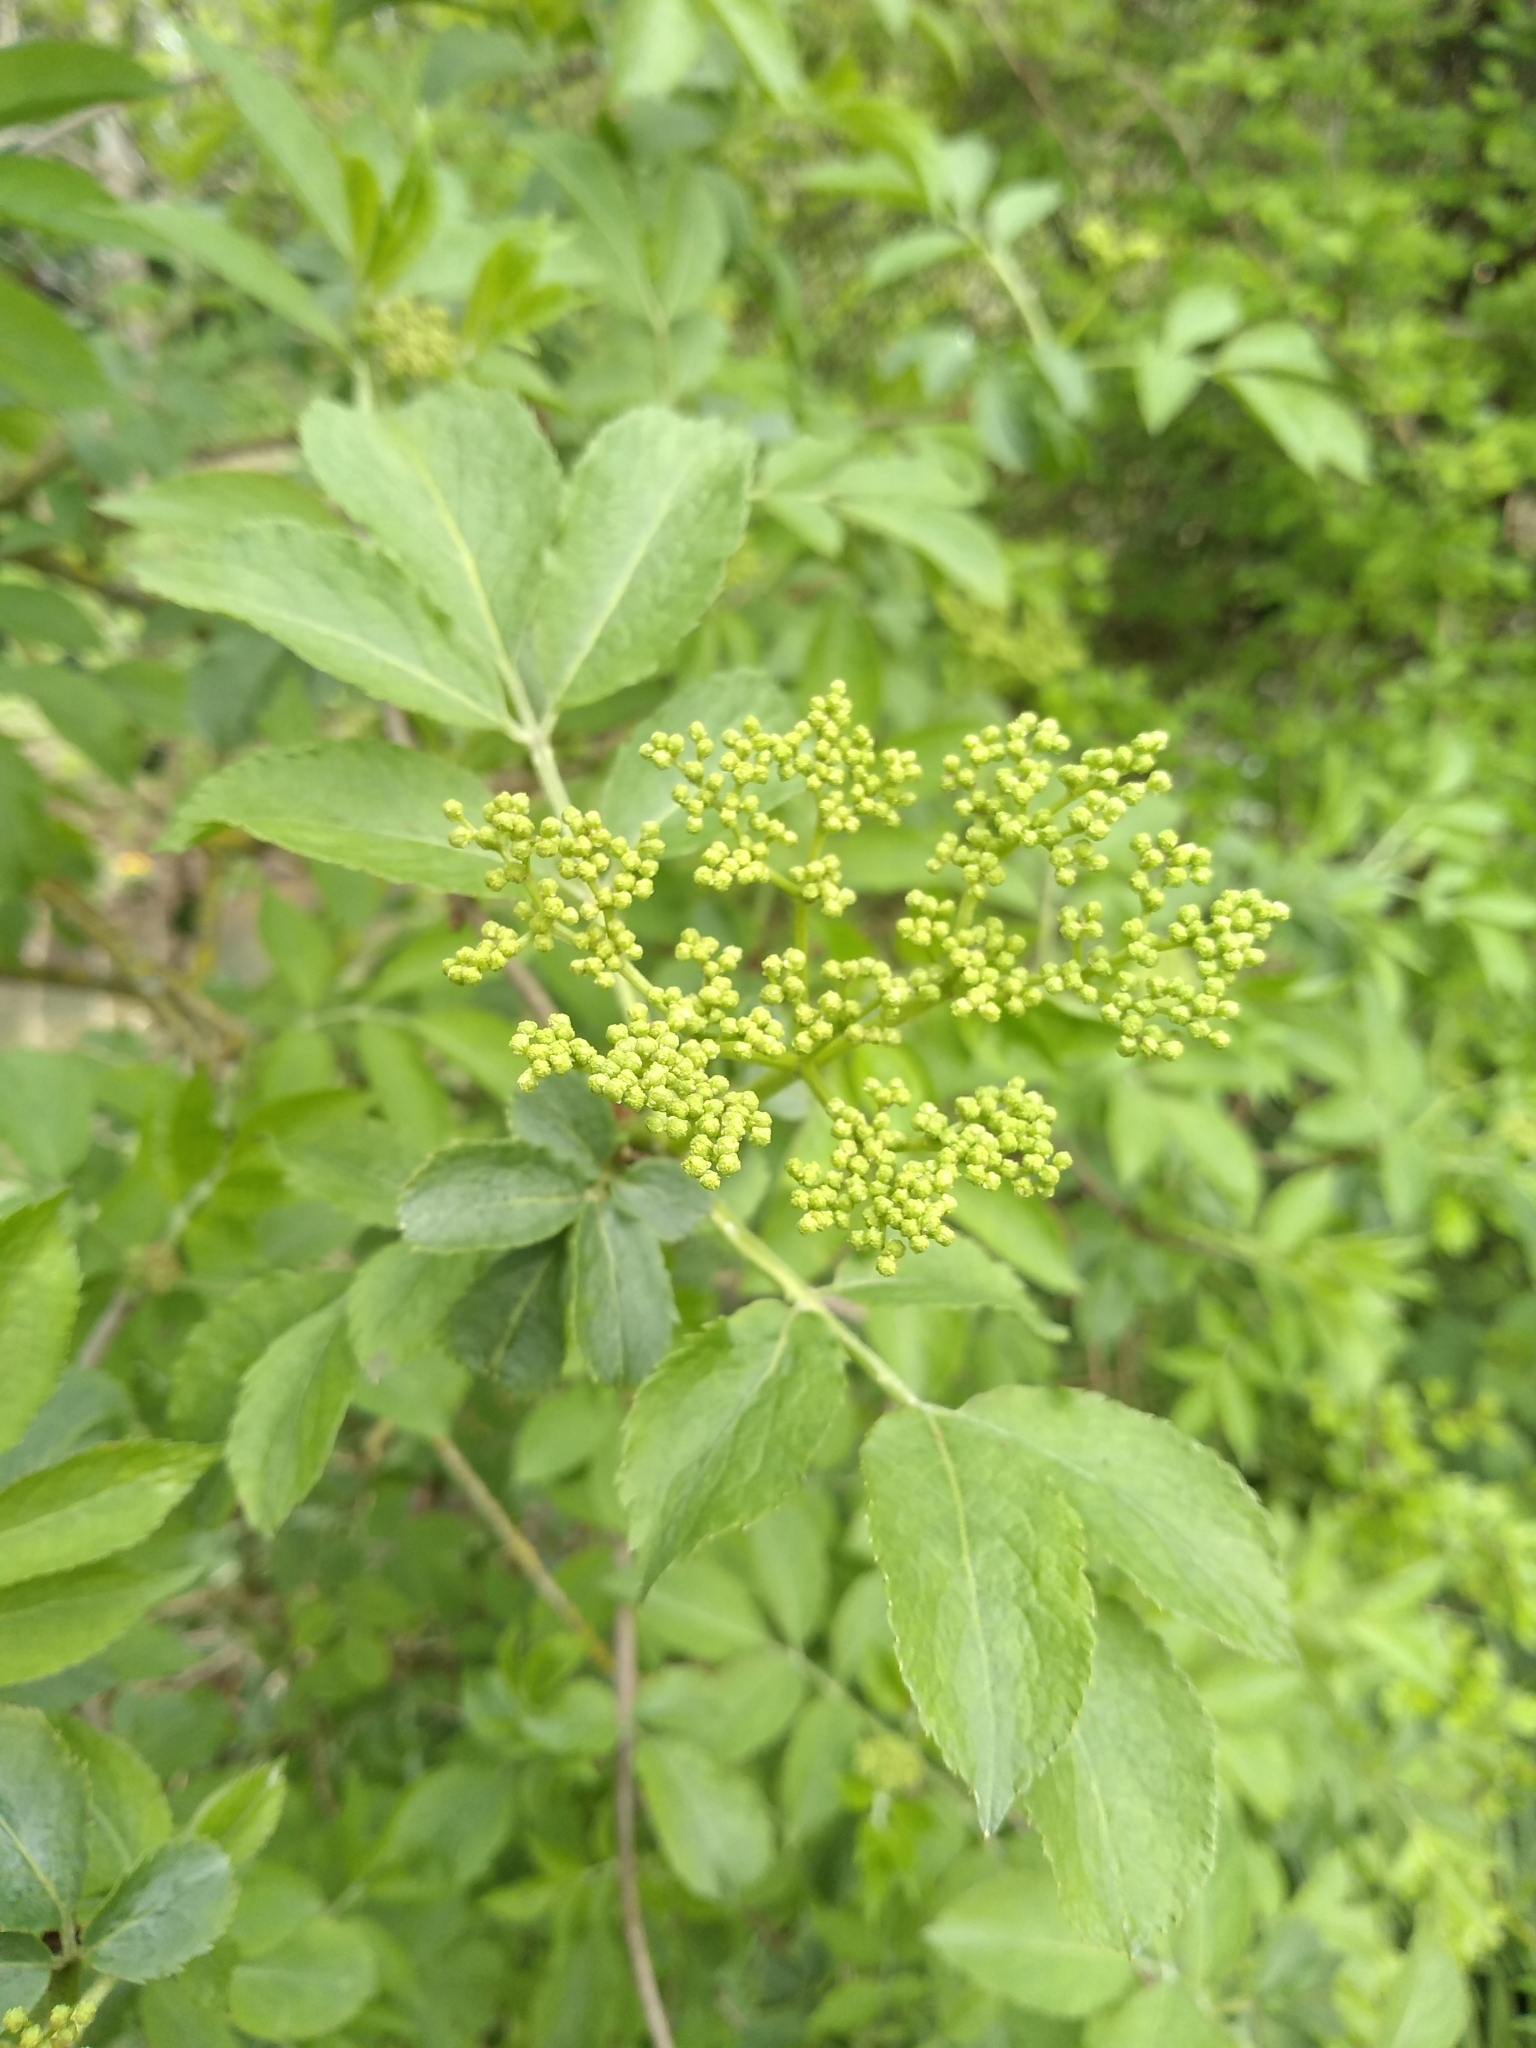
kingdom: Plantae
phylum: Tracheophyta
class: Magnoliopsida
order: Dipsacales
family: Viburnaceae
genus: Sambucus
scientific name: Sambucus nigra
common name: Elder
